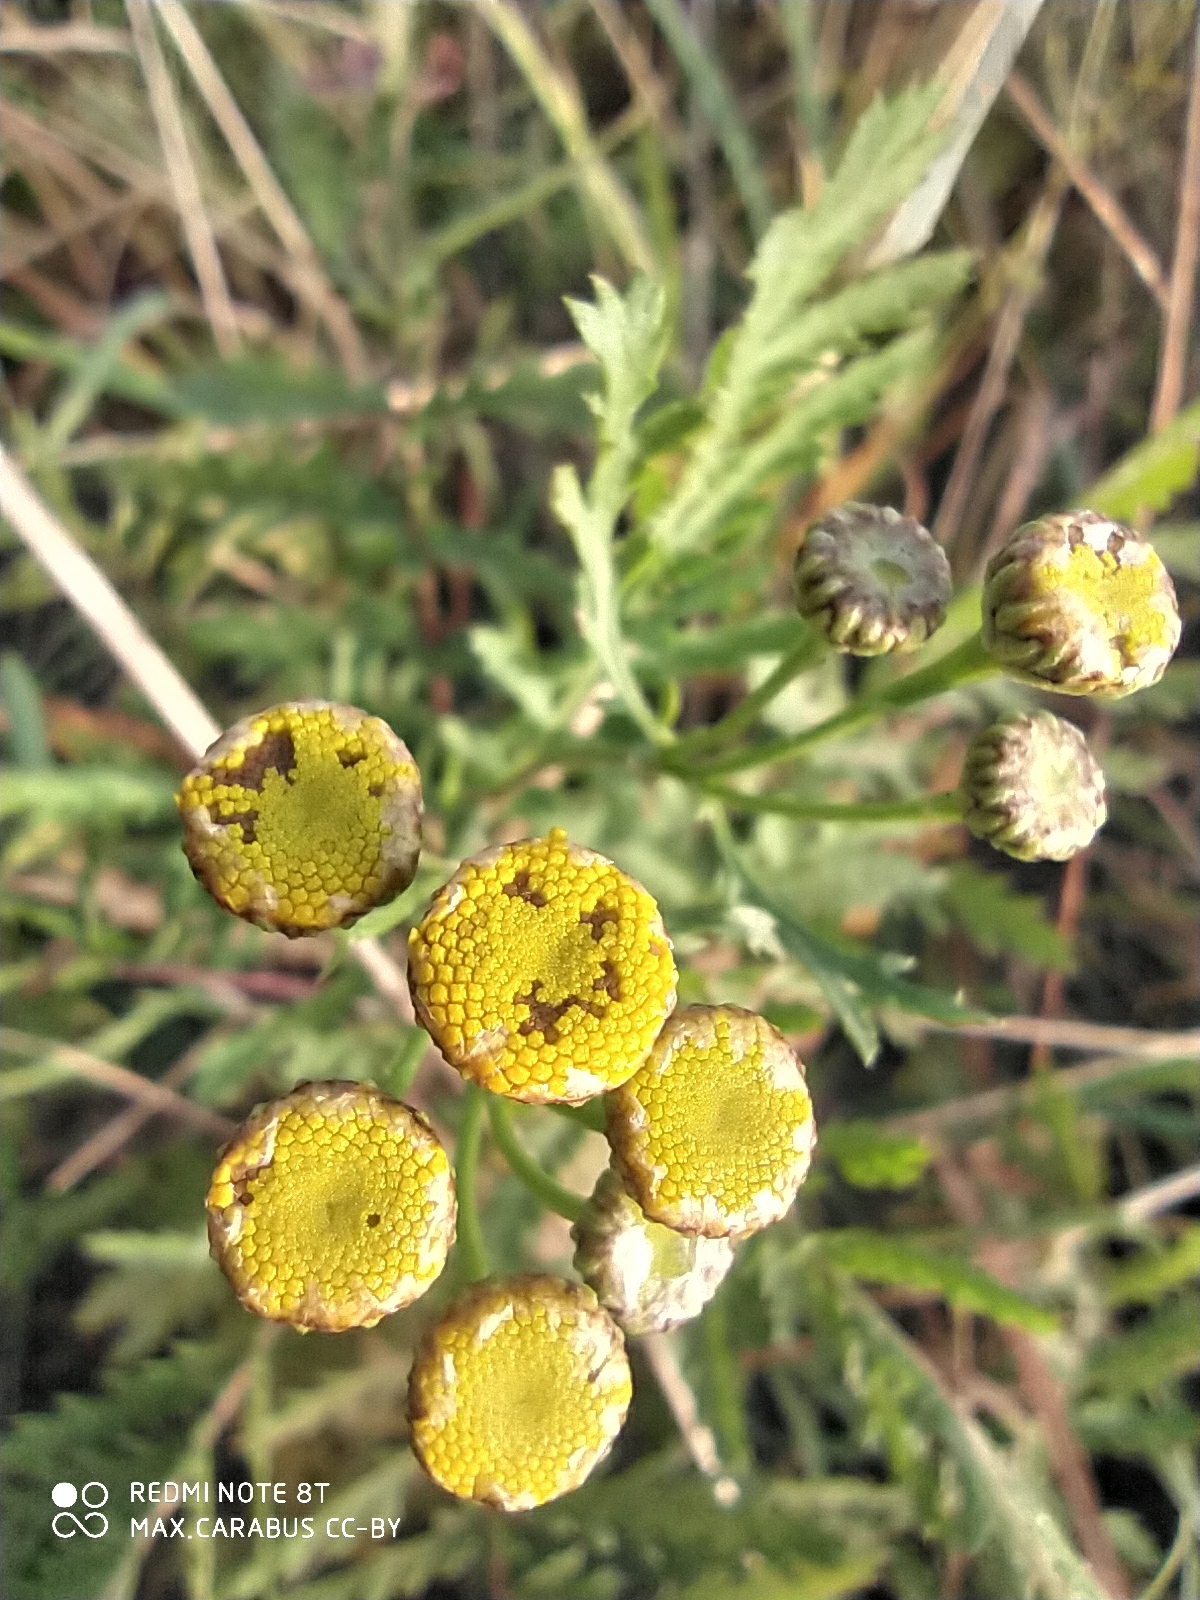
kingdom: Plantae
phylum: Tracheophyta
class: Magnoliopsida
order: Asterales
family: Asteraceae
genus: Tanacetum
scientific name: Tanacetum vulgare
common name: Common tansy
